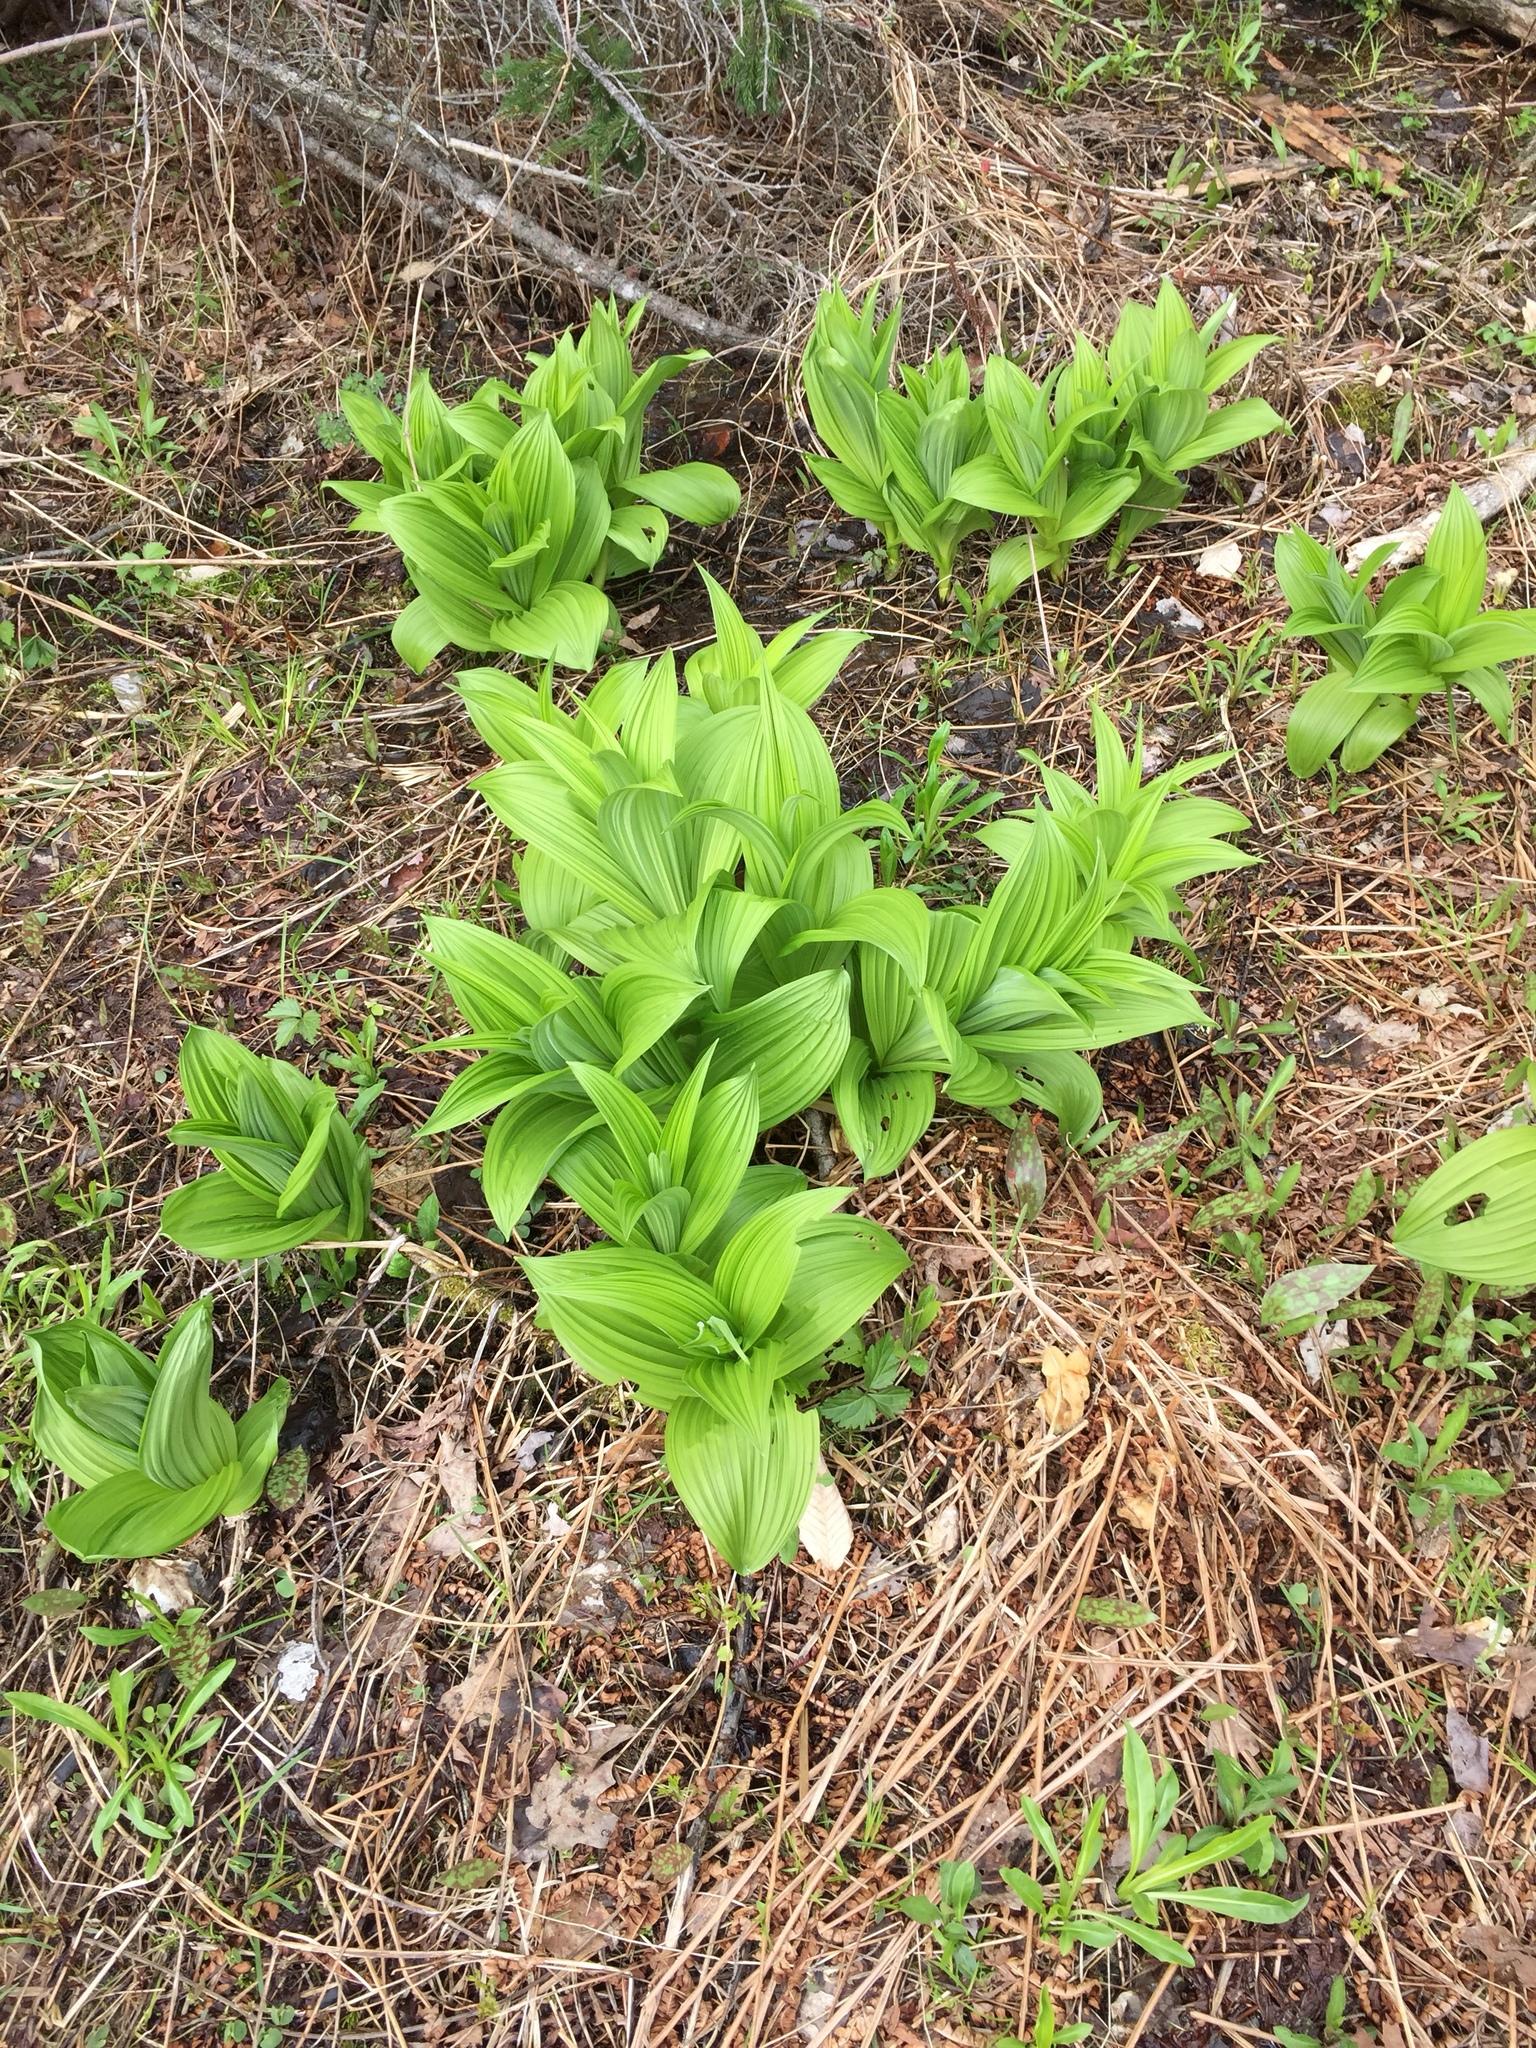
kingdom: Plantae
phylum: Tracheophyta
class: Liliopsida
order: Liliales
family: Melanthiaceae
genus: Veratrum
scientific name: Veratrum viride
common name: American false hellebore
